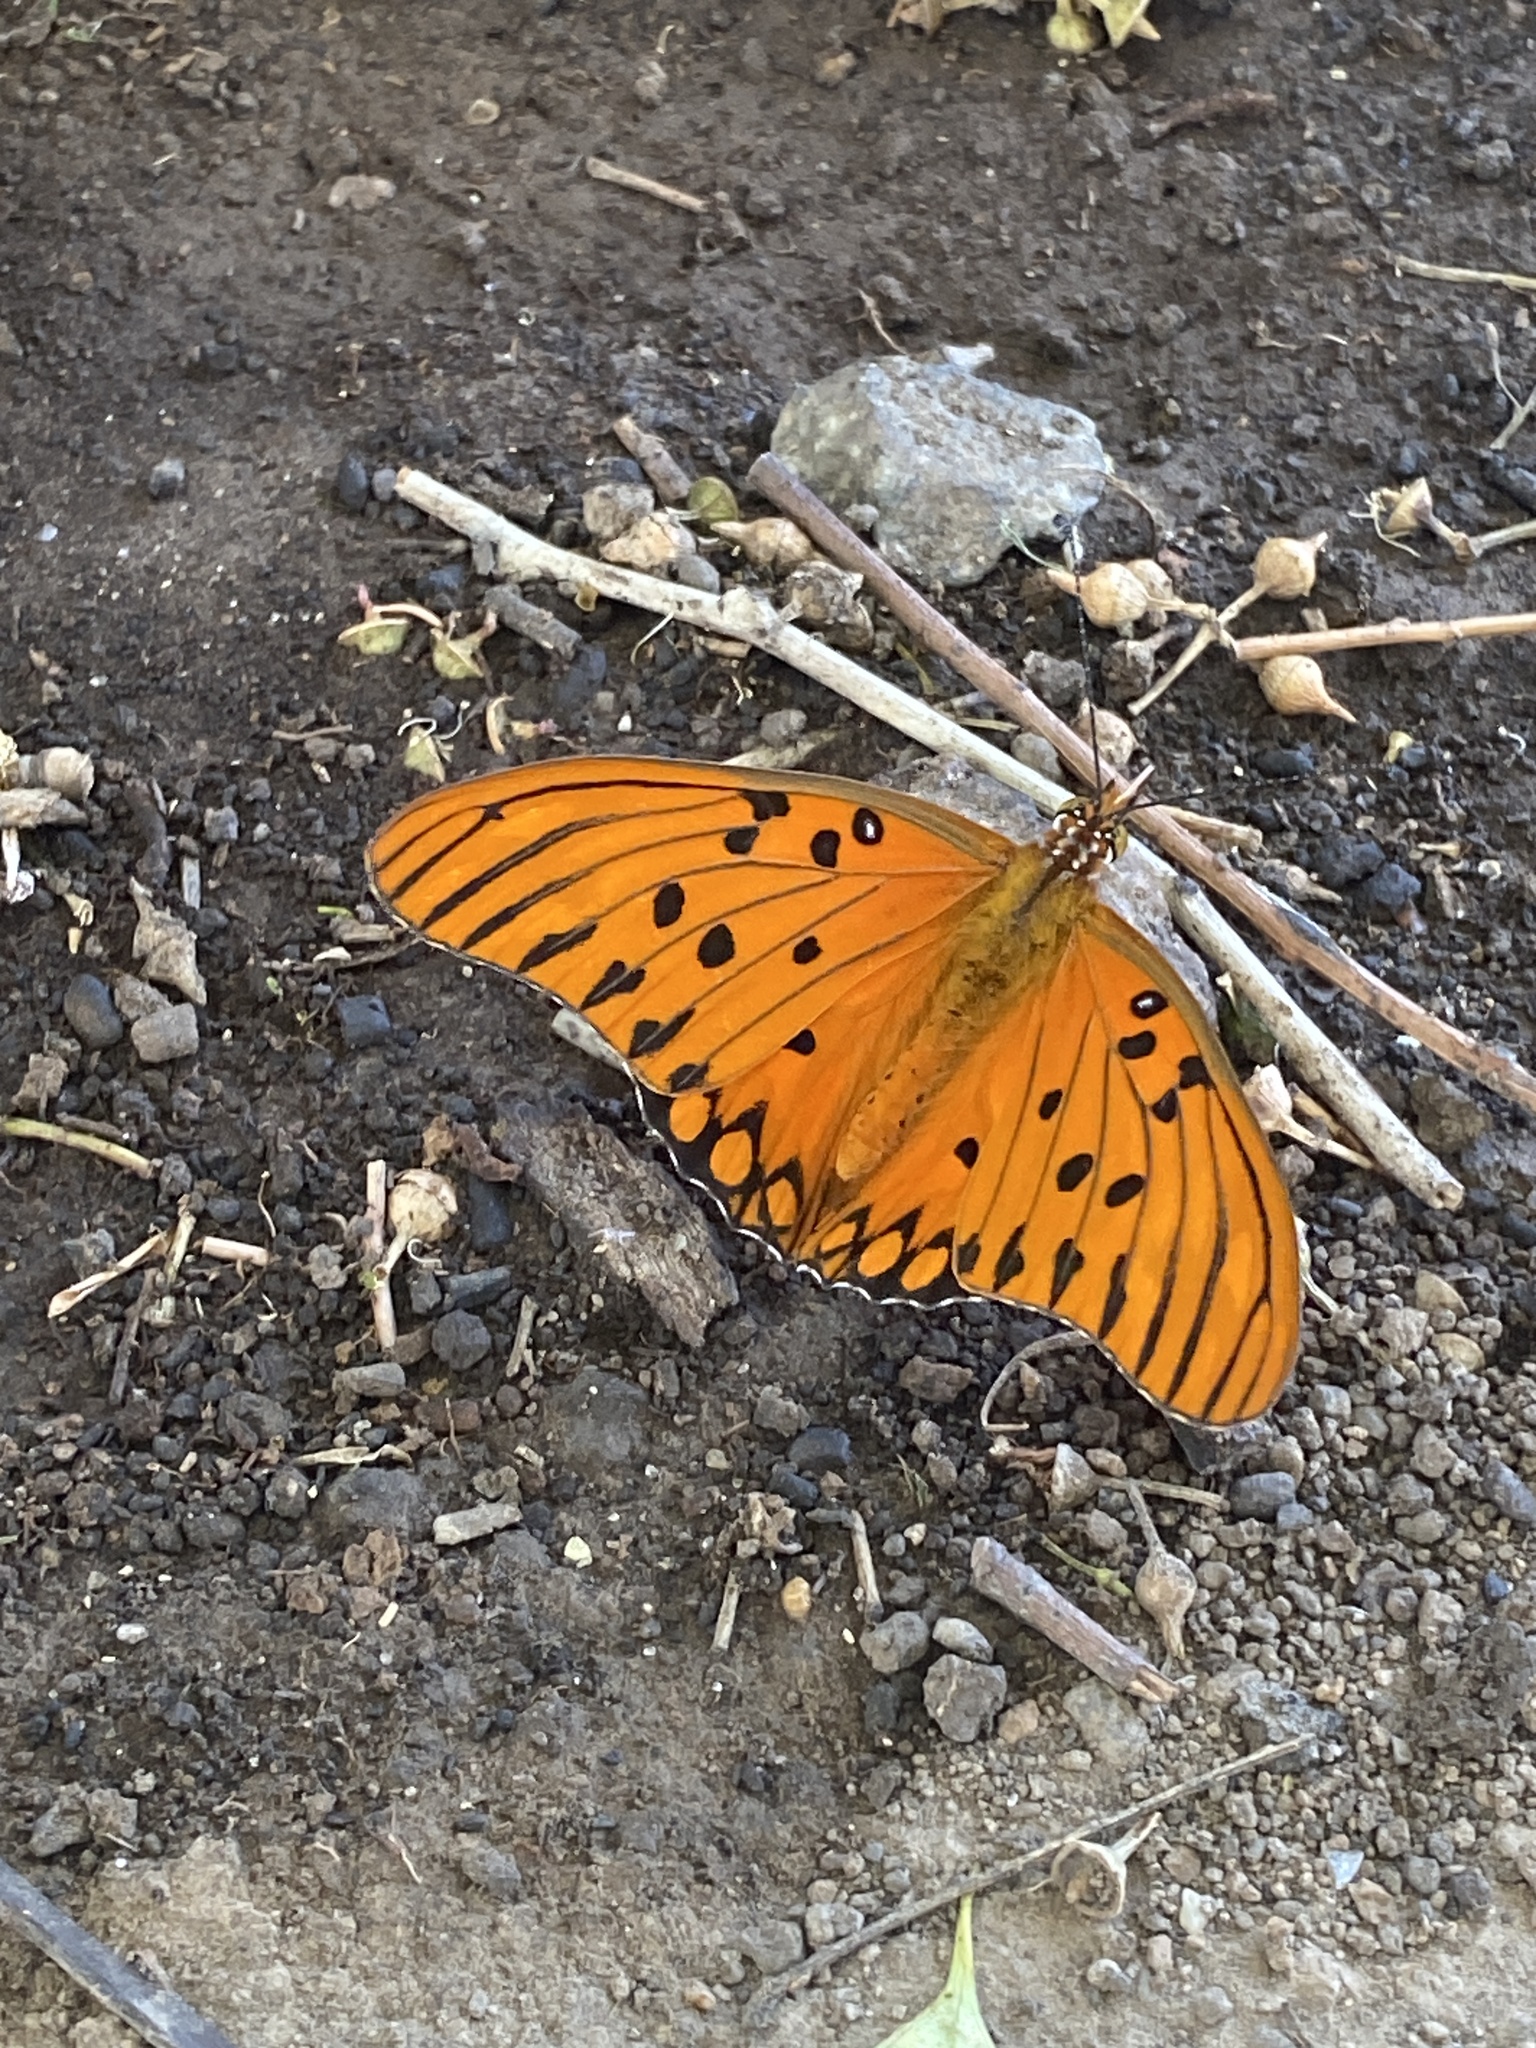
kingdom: Animalia
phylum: Arthropoda
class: Insecta
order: Lepidoptera
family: Nymphalidae
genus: Dione
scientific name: Dione vanillae
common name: Gulf fritillary
